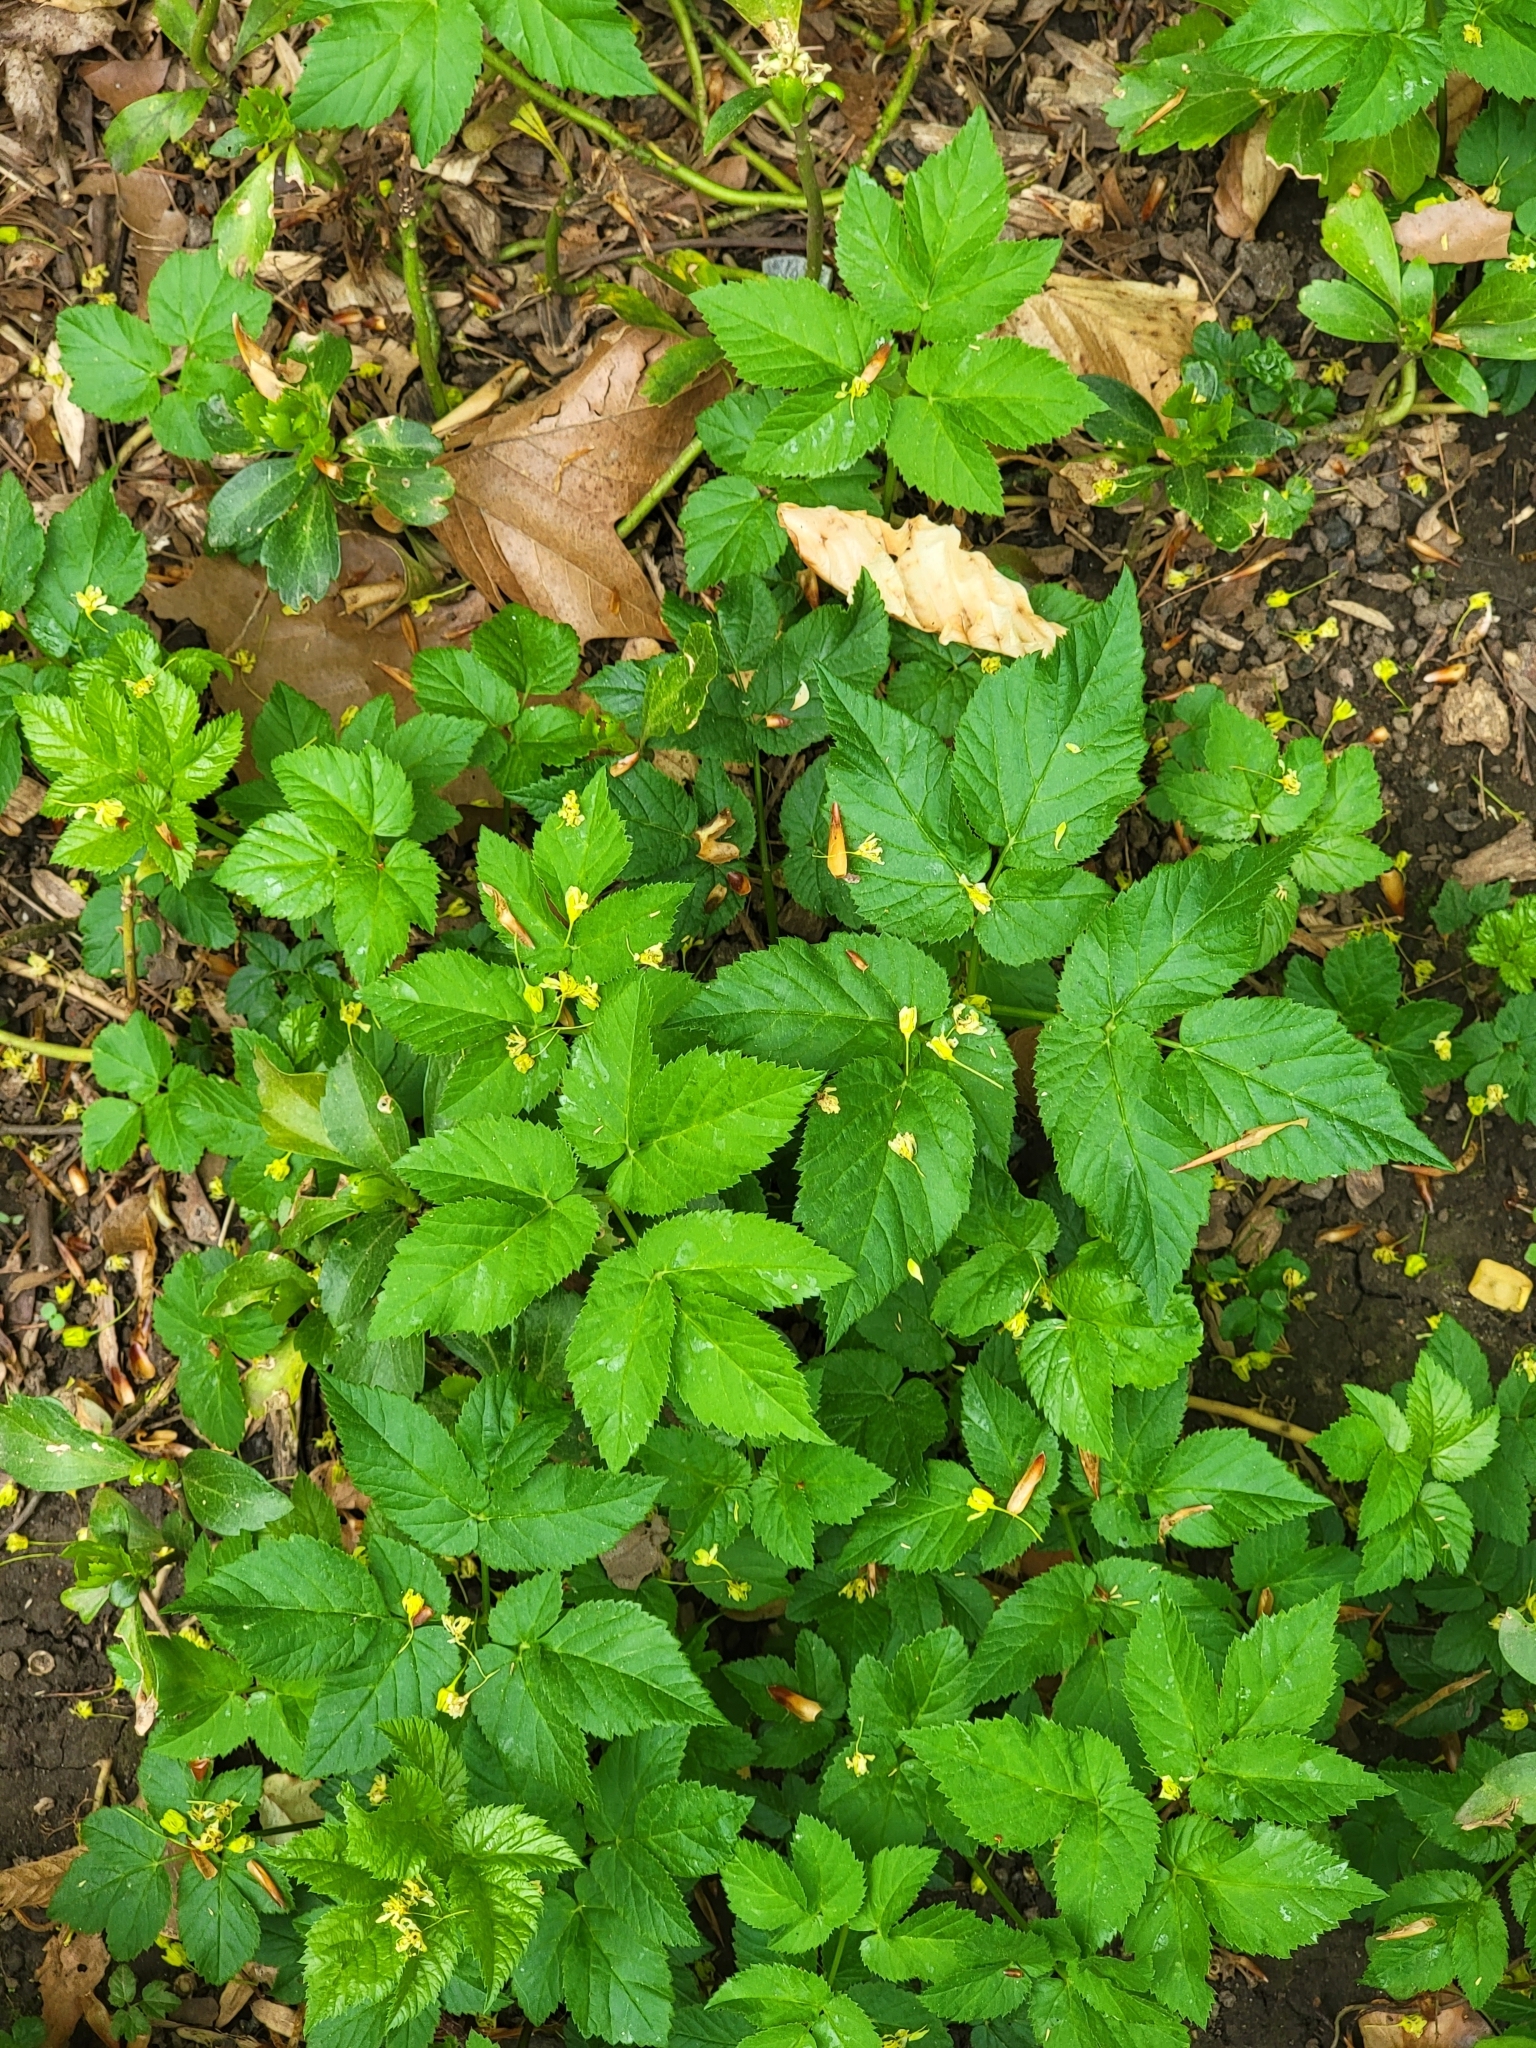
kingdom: Plantae
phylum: Tracheophyta
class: Magnoliopsida
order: Apiales
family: Apiaceae
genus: Aegopodium
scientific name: Aegopodium podagraria
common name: Ground-elder
